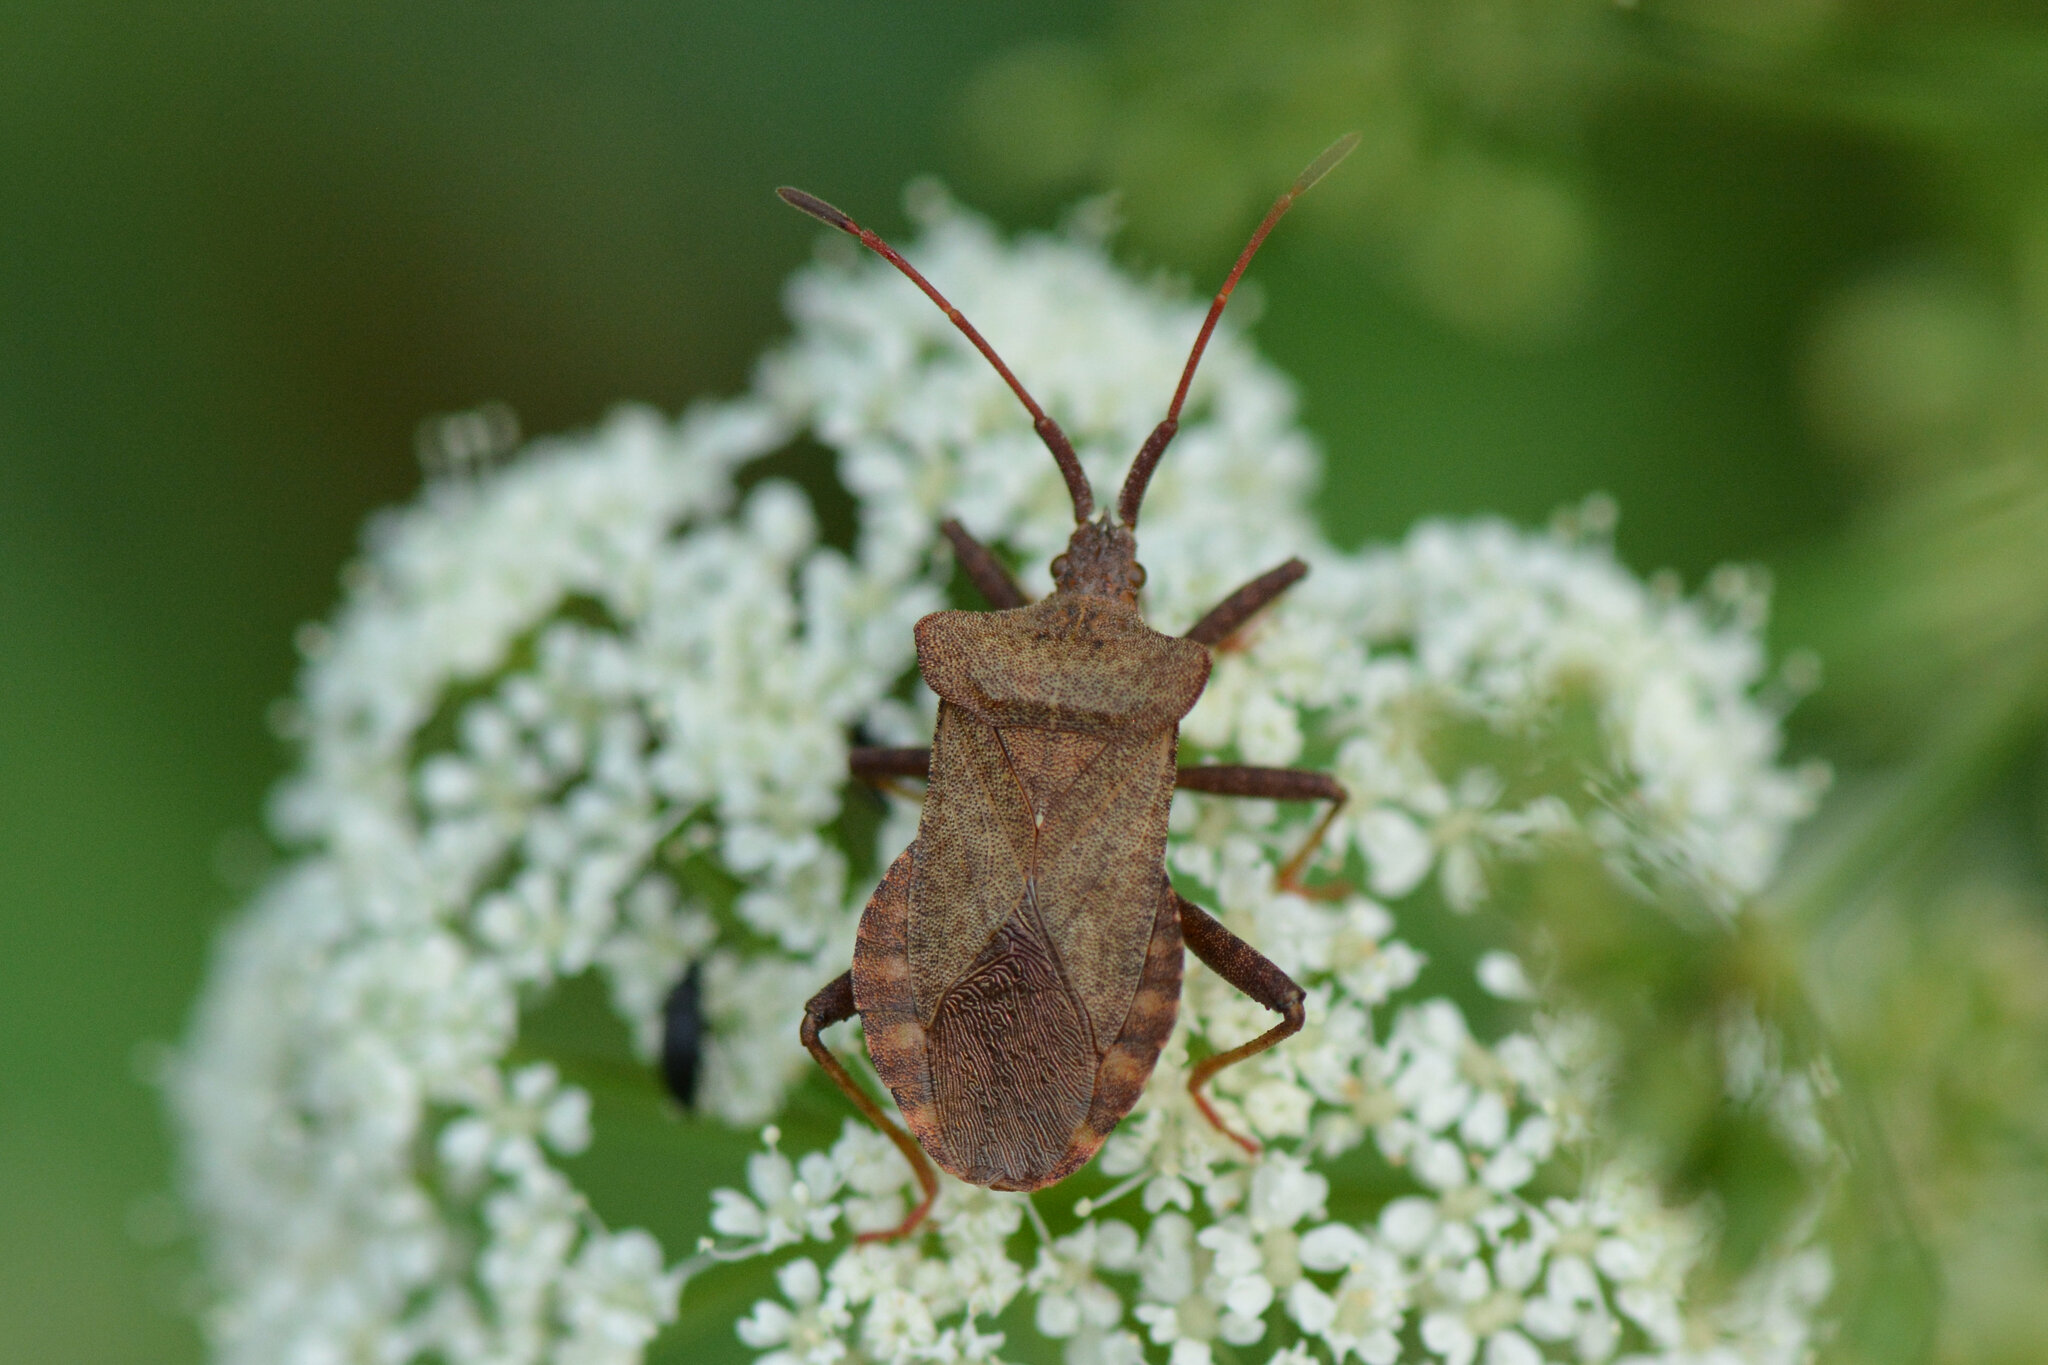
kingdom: Animalia
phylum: Arthropoda
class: Insecta
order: Hemiptera
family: Coreidae
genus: Coreus
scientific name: Coreus marginatus
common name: Dock bug
